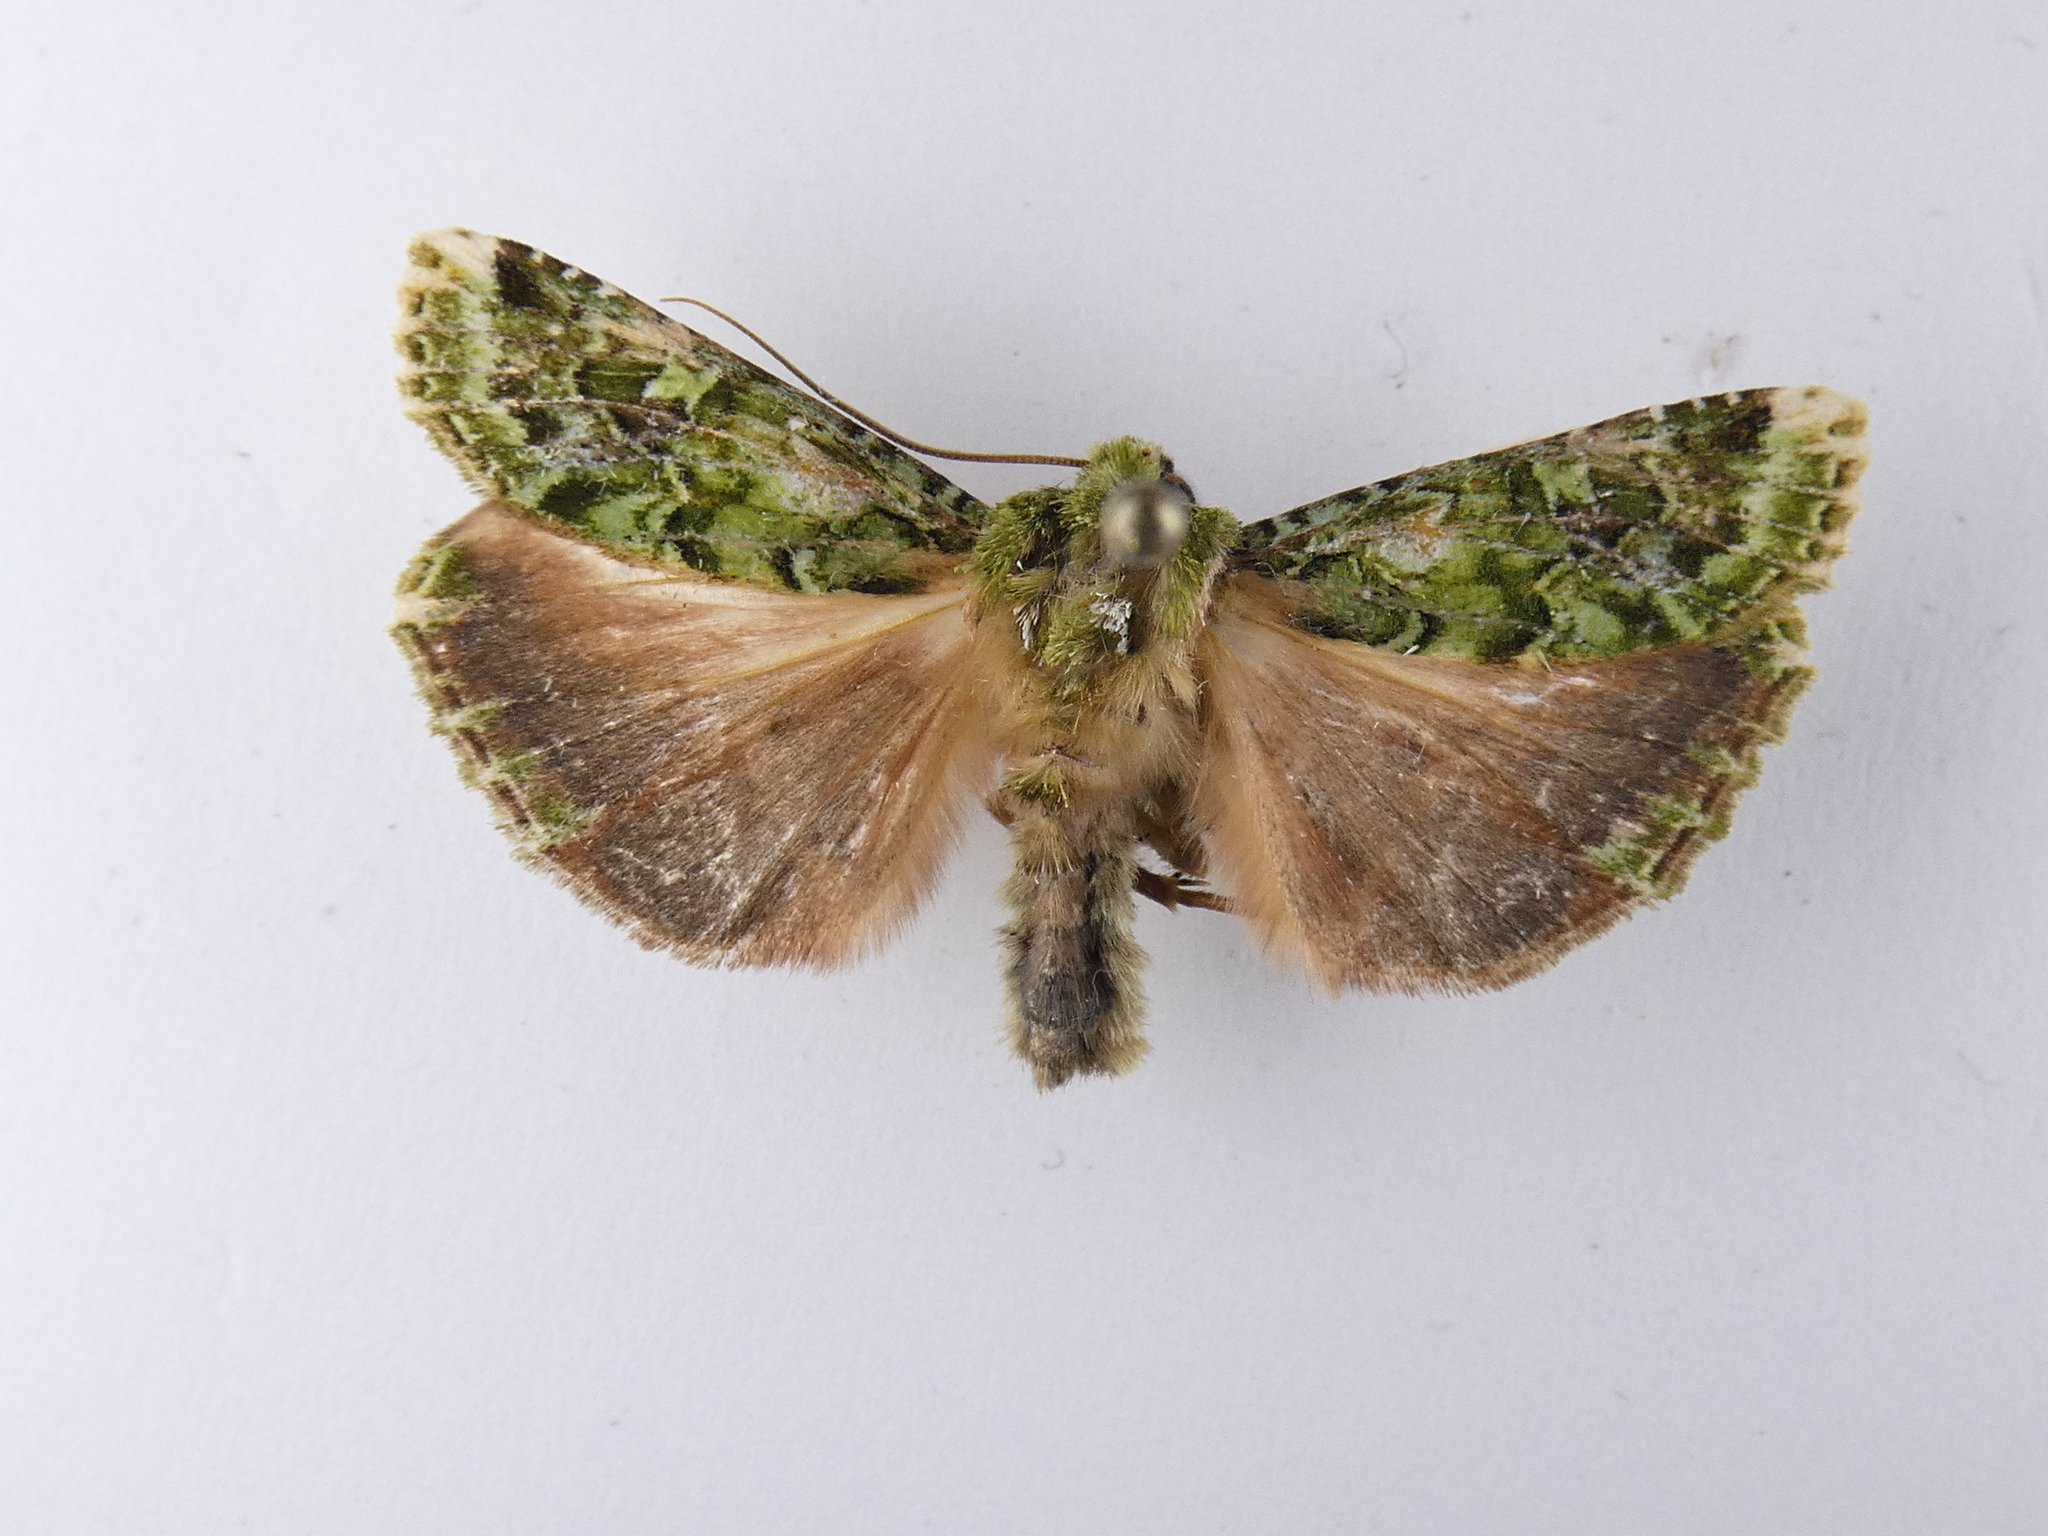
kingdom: Animalia
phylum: Arthropoda
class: Insecta
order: Lepidoptera
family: Noctuidae
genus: Feredayia
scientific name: Feredayia grammosa
